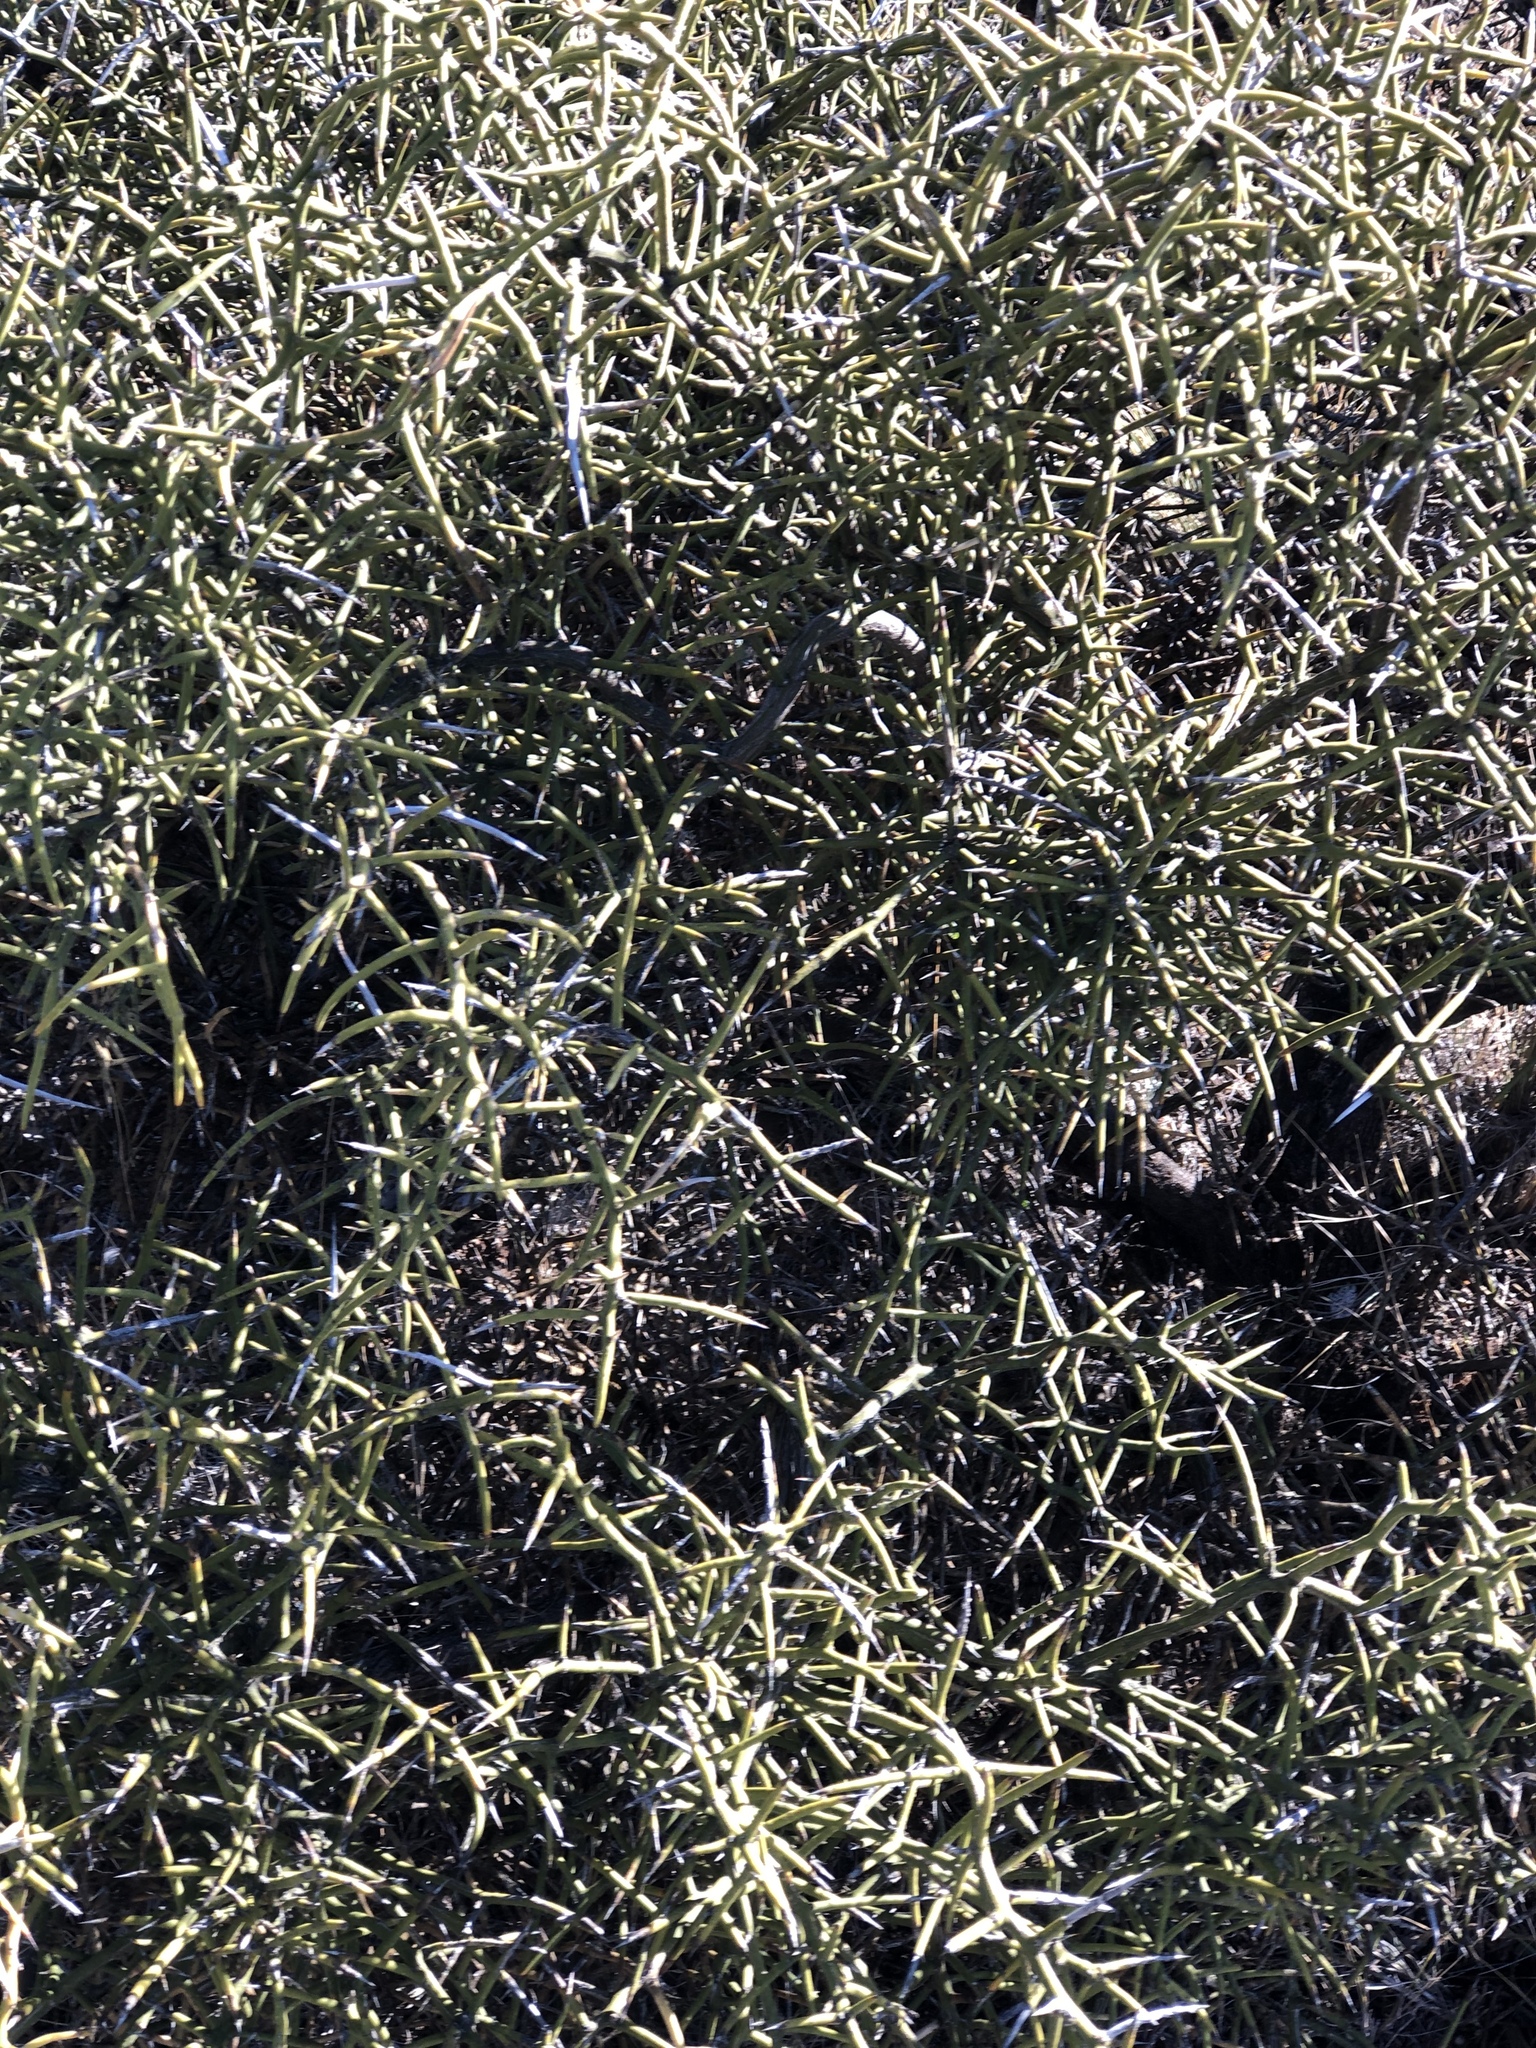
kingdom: Plantae
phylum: Tracheophyta
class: Magnoliopsida
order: Brassicales
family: Koeberliniaceae
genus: Koeberlinia
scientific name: Koeberlinia spinosa
